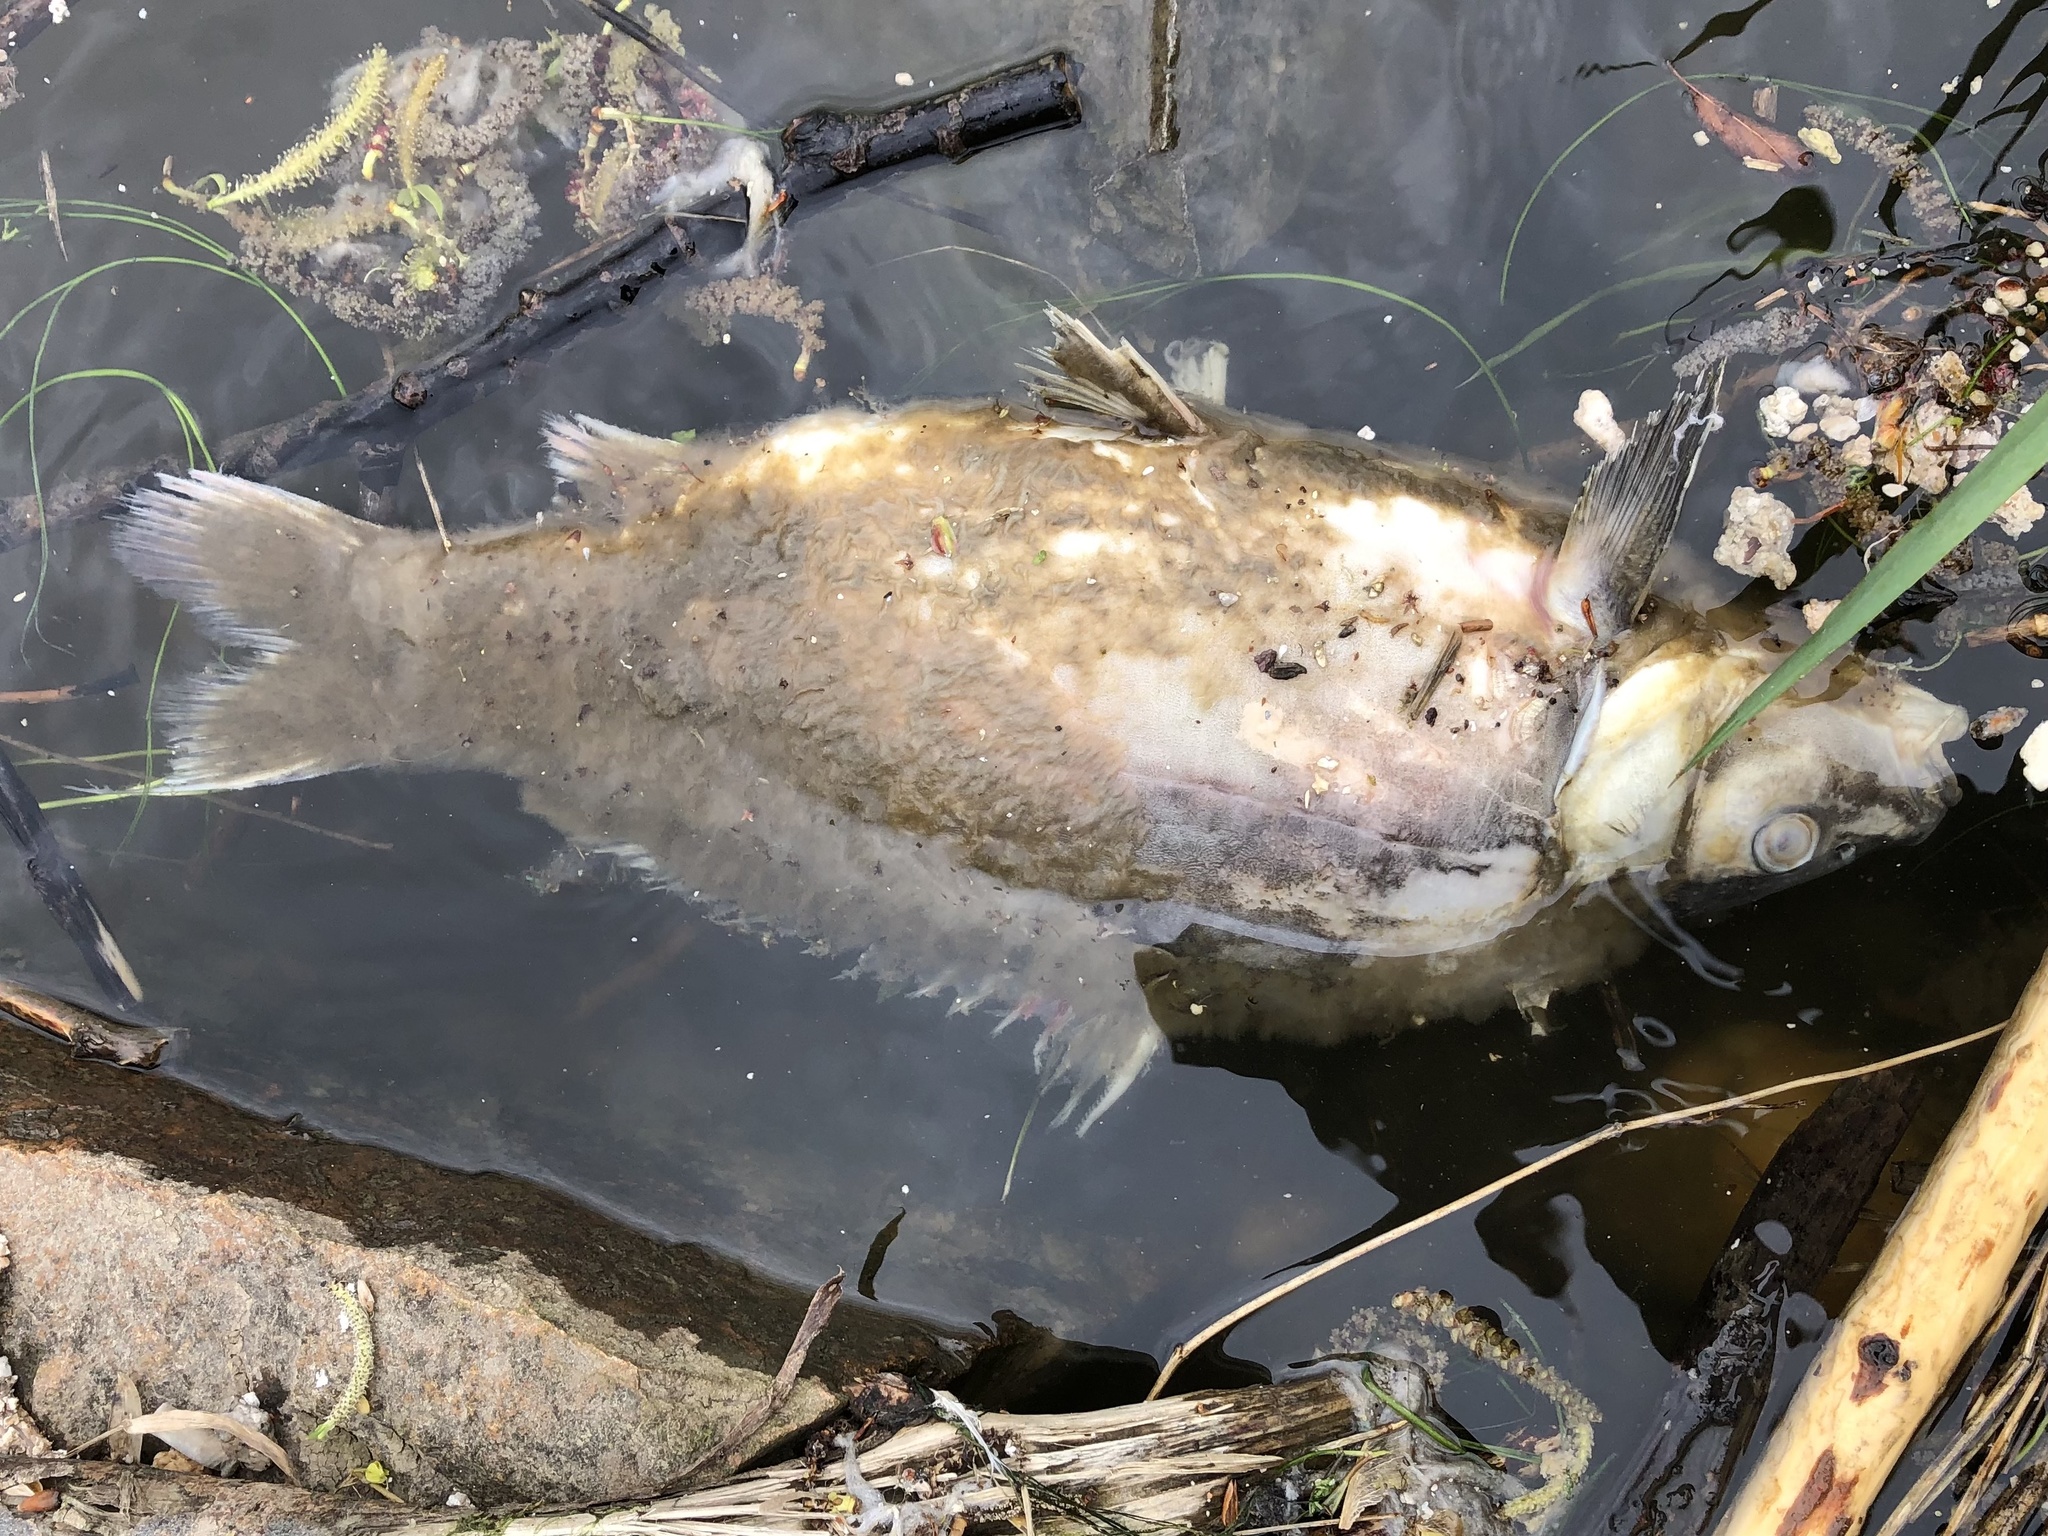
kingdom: Animalia
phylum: Chordata
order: Cypriniformes
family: Cyprinidae
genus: Cyprinus
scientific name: Cyprinus carpio
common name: Common carp
